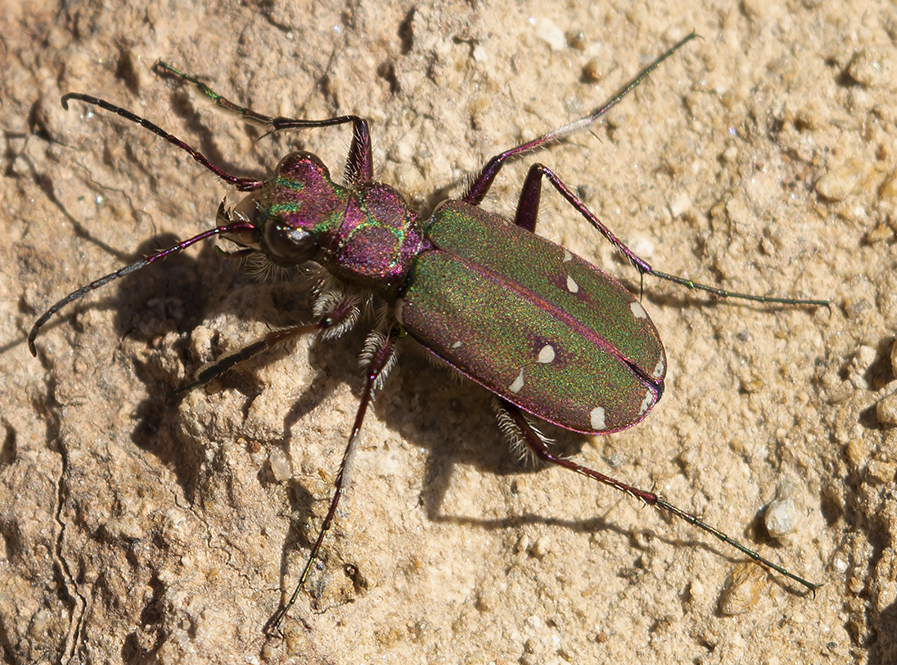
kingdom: Animalia
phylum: Arthropoda
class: Insecta
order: Coleoptera
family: Carabidae
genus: Cicindela
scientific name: Cicindela campestris
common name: Common tiger beetle
